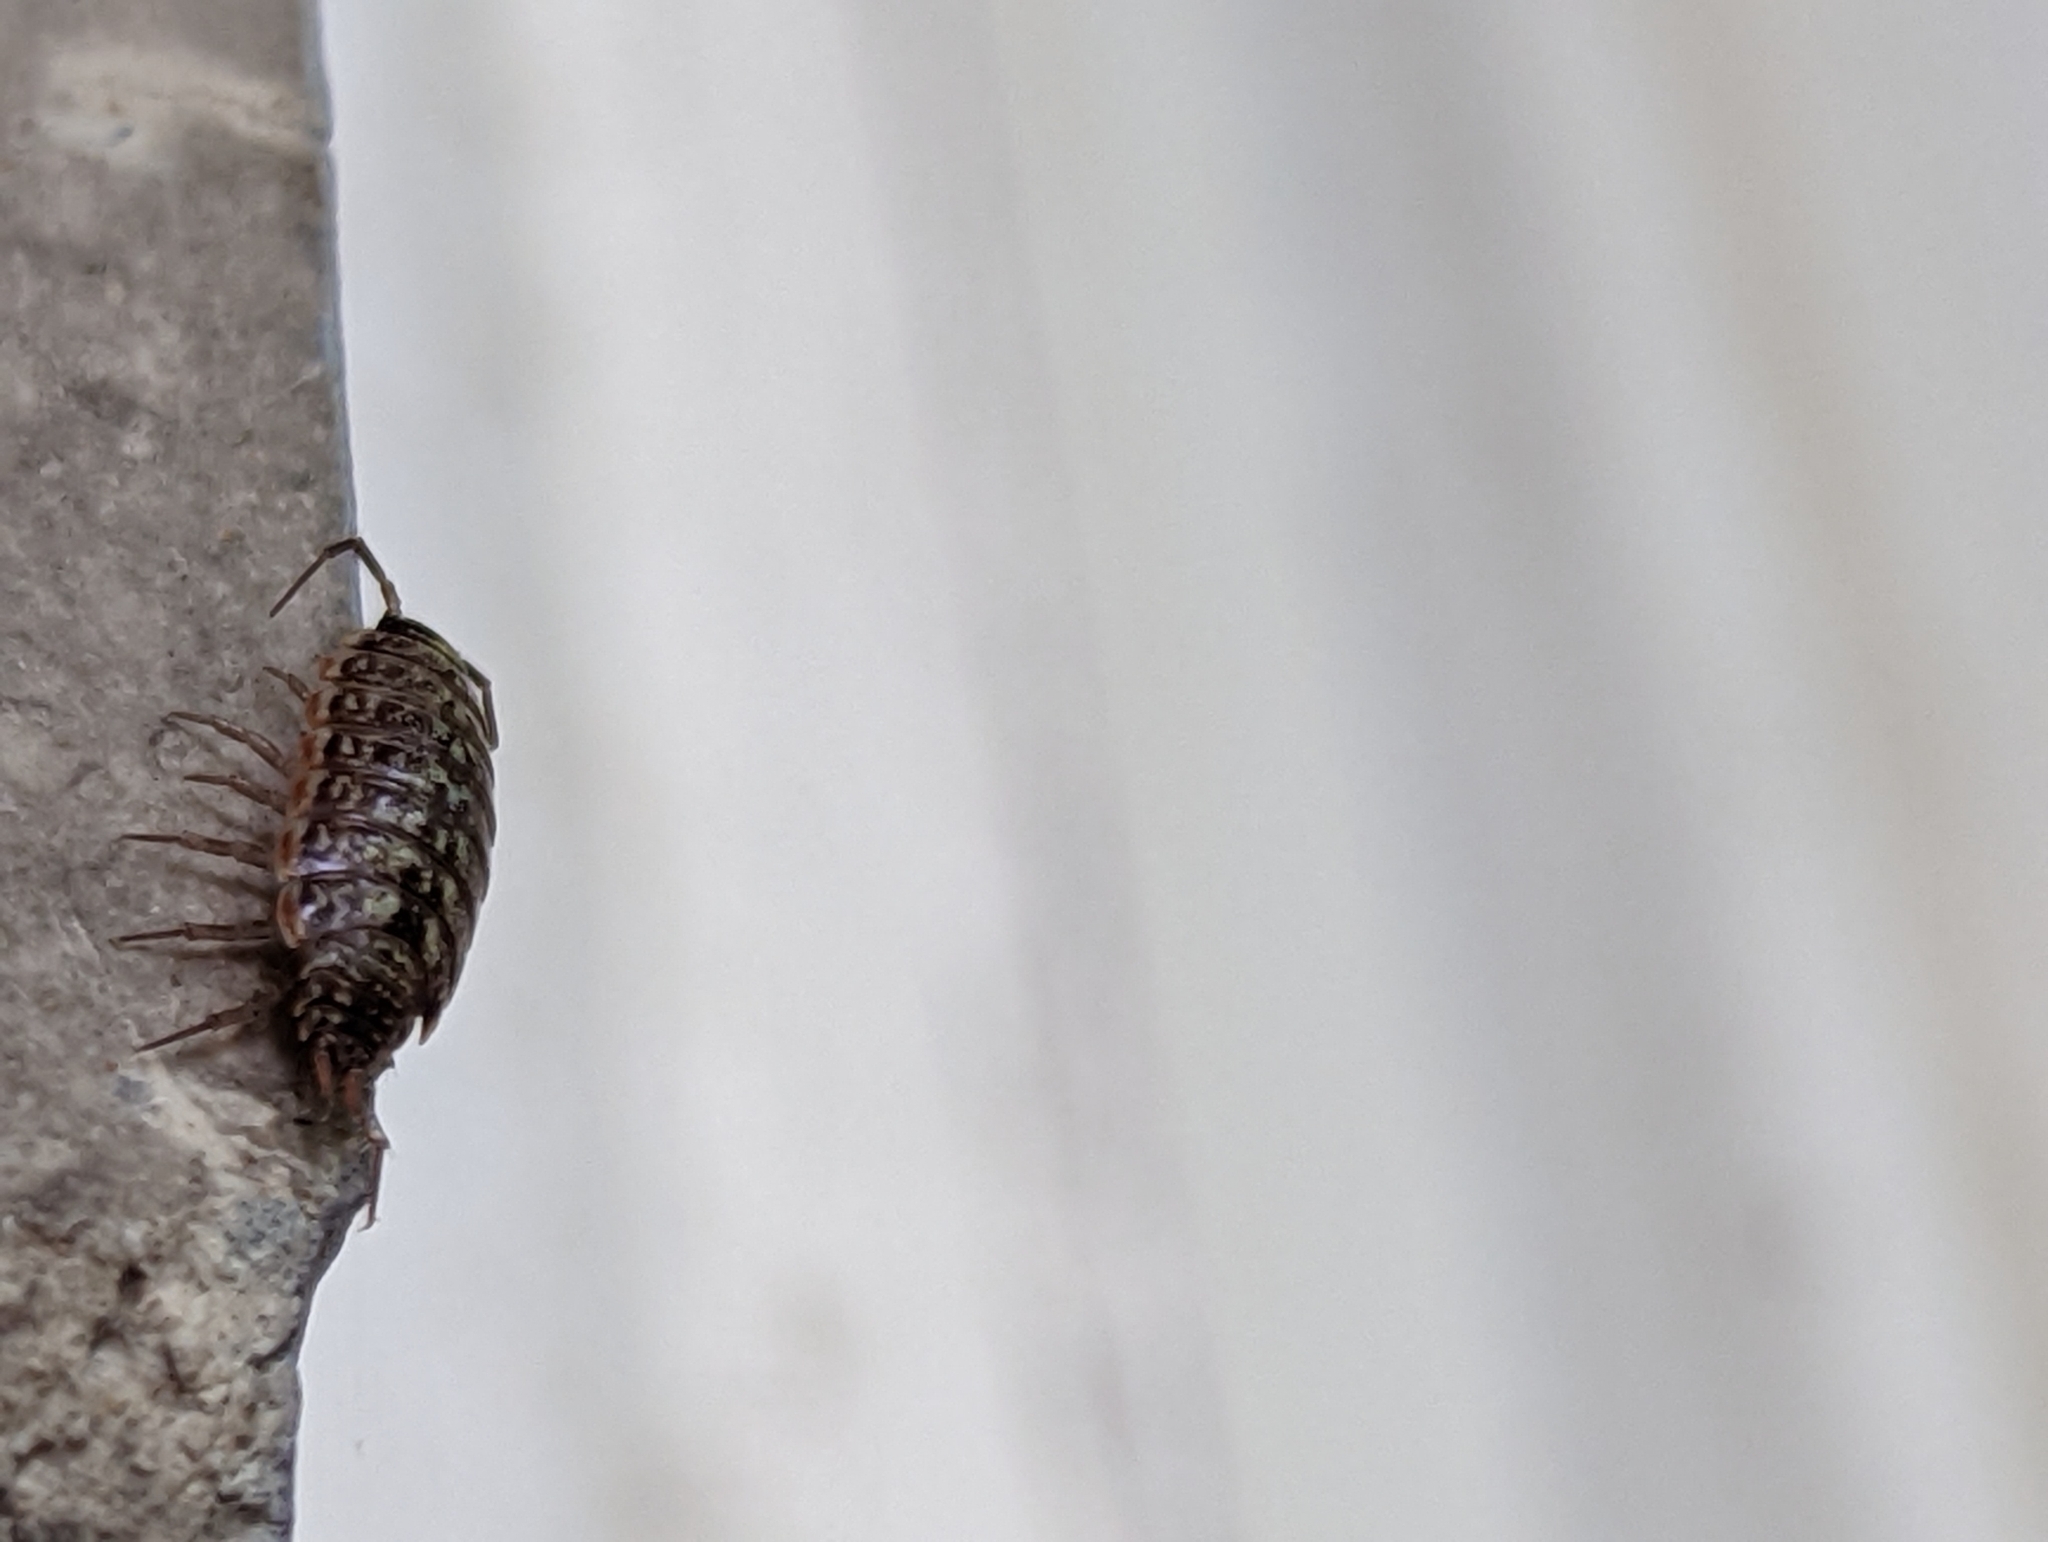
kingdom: Animalia
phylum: Arthropoda
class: Malacostraca
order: Isopoda
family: Philosciidae
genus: Philoscia
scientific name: Philoscia muscorum
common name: Common striped woodlouse
